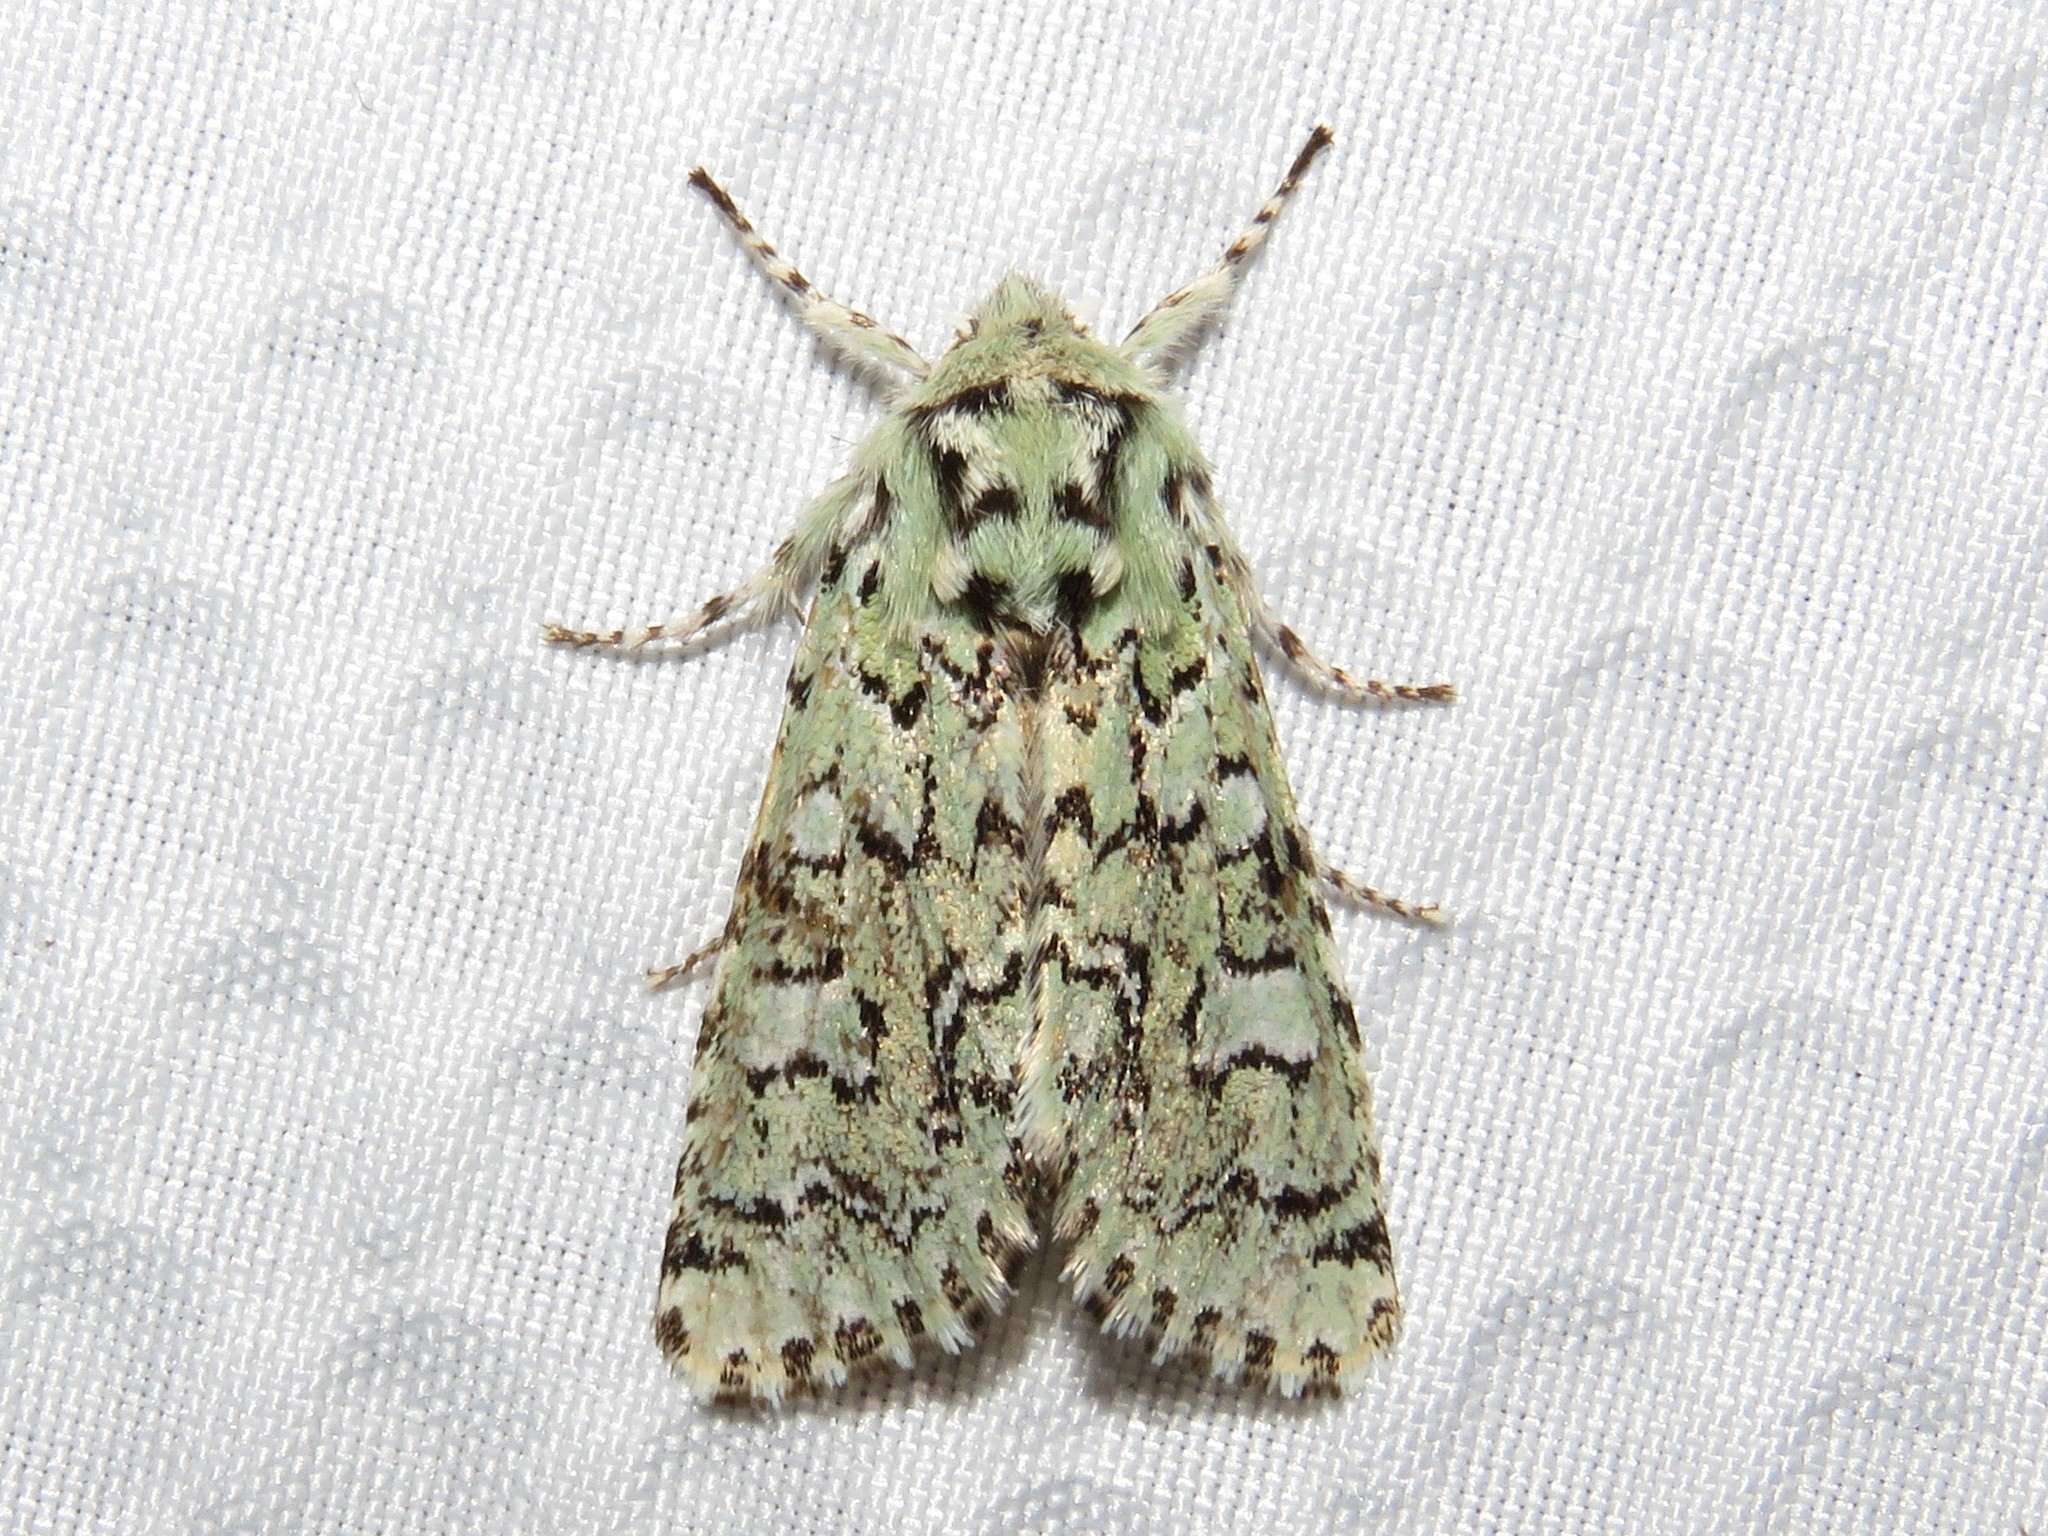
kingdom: Animalia
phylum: Arthropoda
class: Insecta
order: Lepidoptera
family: Noctuidae
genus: Feralia
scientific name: Feralia jocosa
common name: Joker
